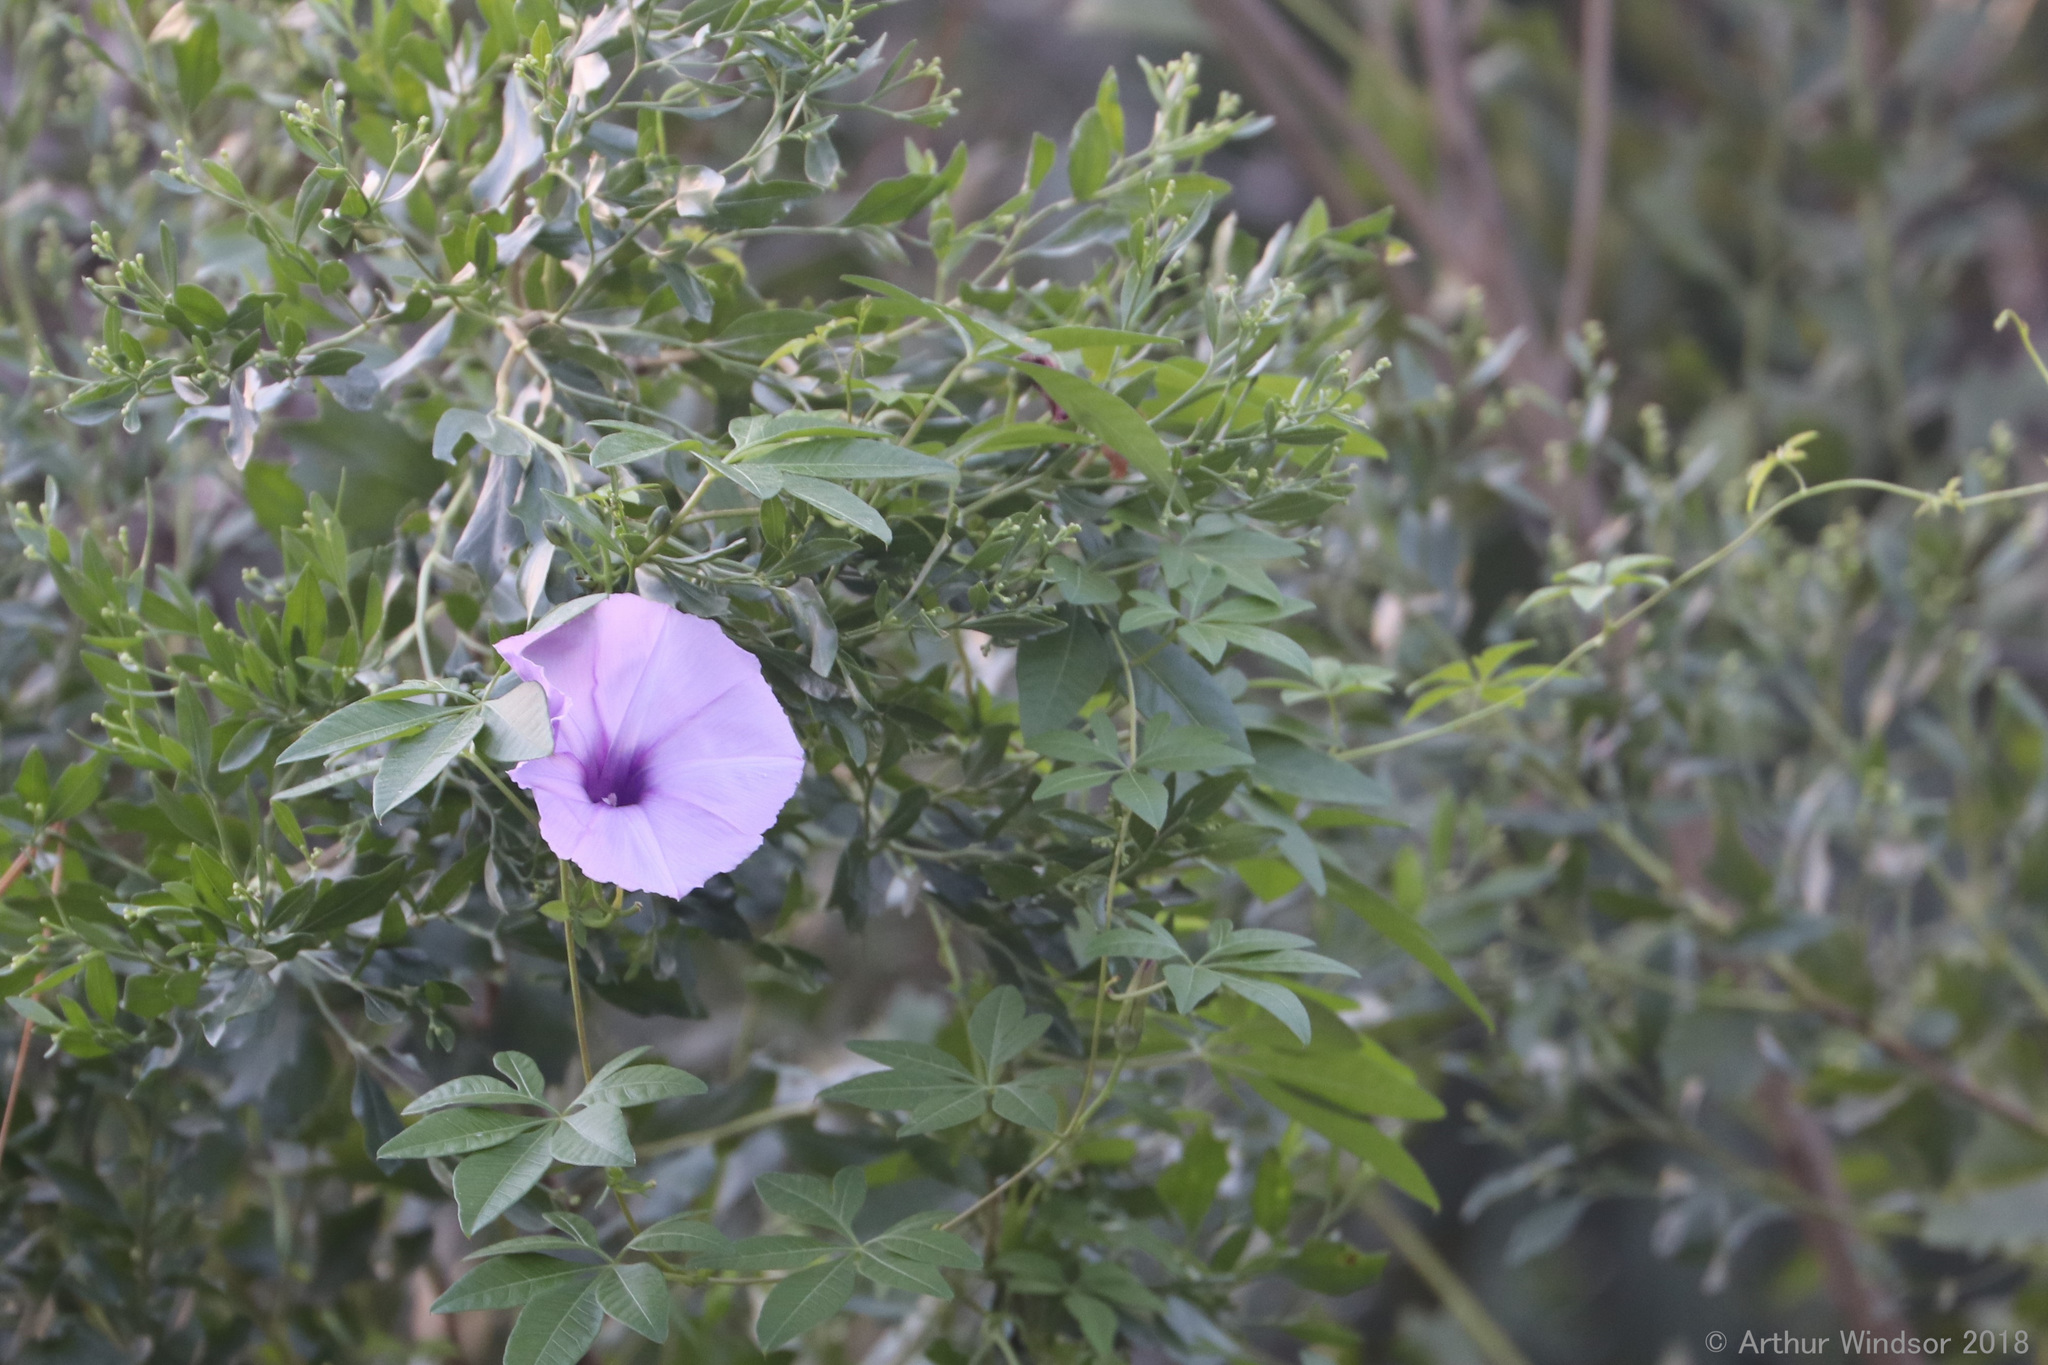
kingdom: Plantae
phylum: Tracheophyta
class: Magnoliopsida
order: Solanales
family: Convolvulaceae
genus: Ipomoea
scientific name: Ipomoea cairica
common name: Mile a minute vine
